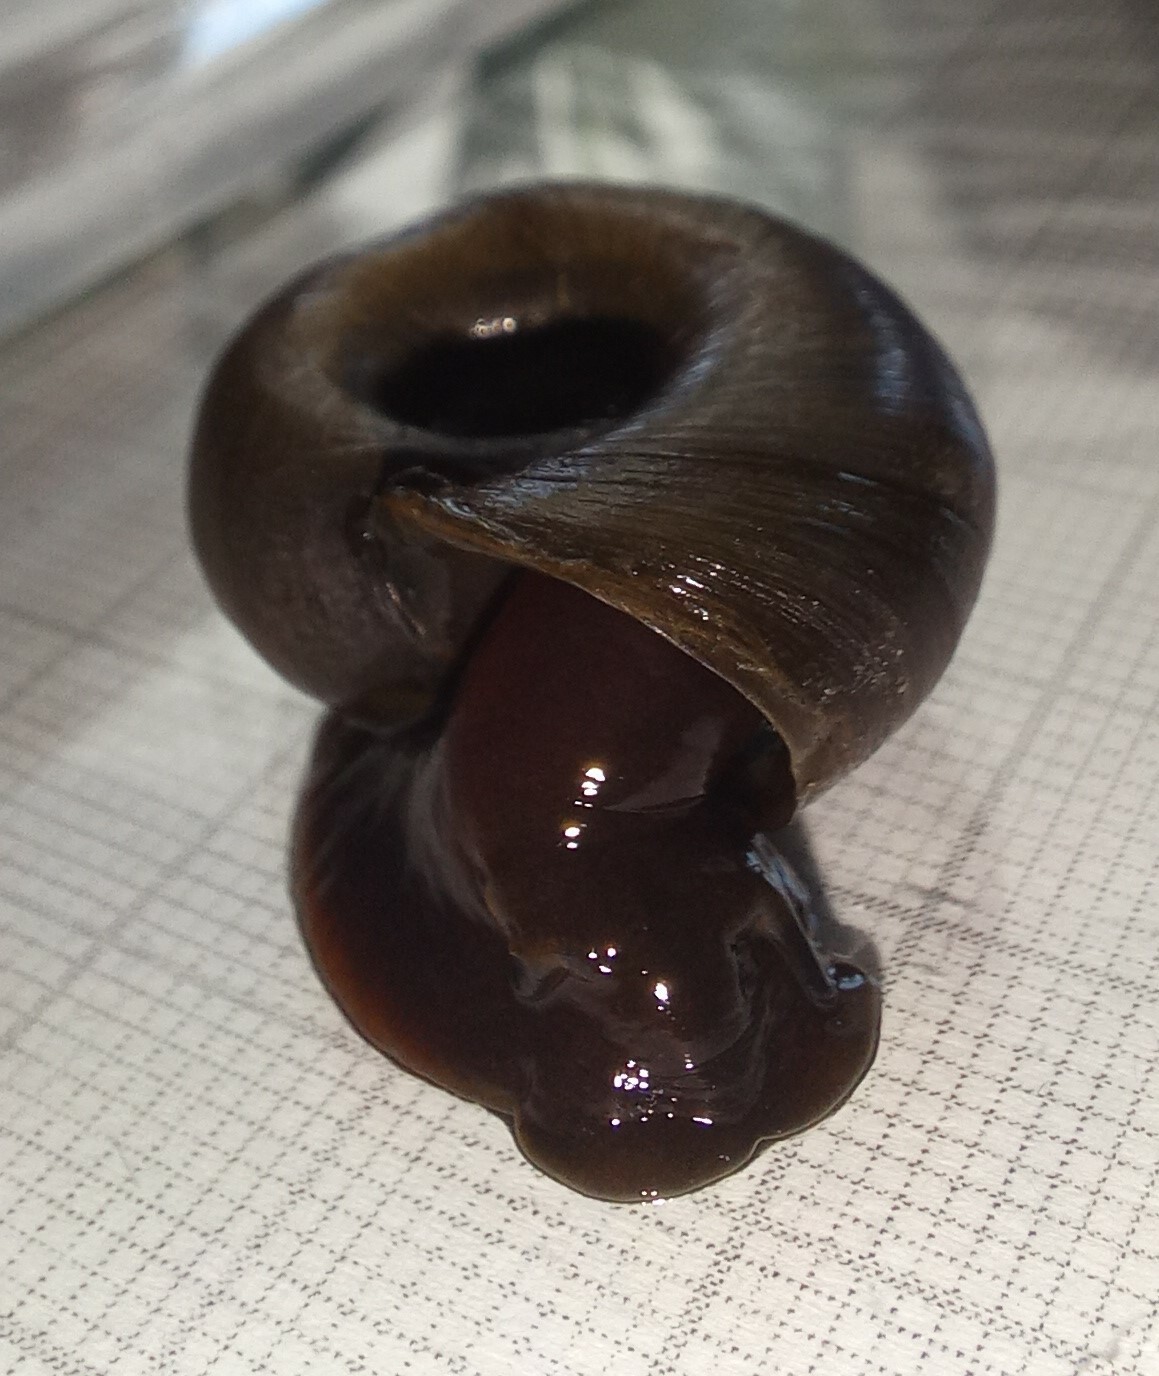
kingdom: Animalia
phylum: Mollusca
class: Gastropoda
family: Planorbidae
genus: Planorbarius
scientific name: Planorbarius corneus
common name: Great ramshorn
